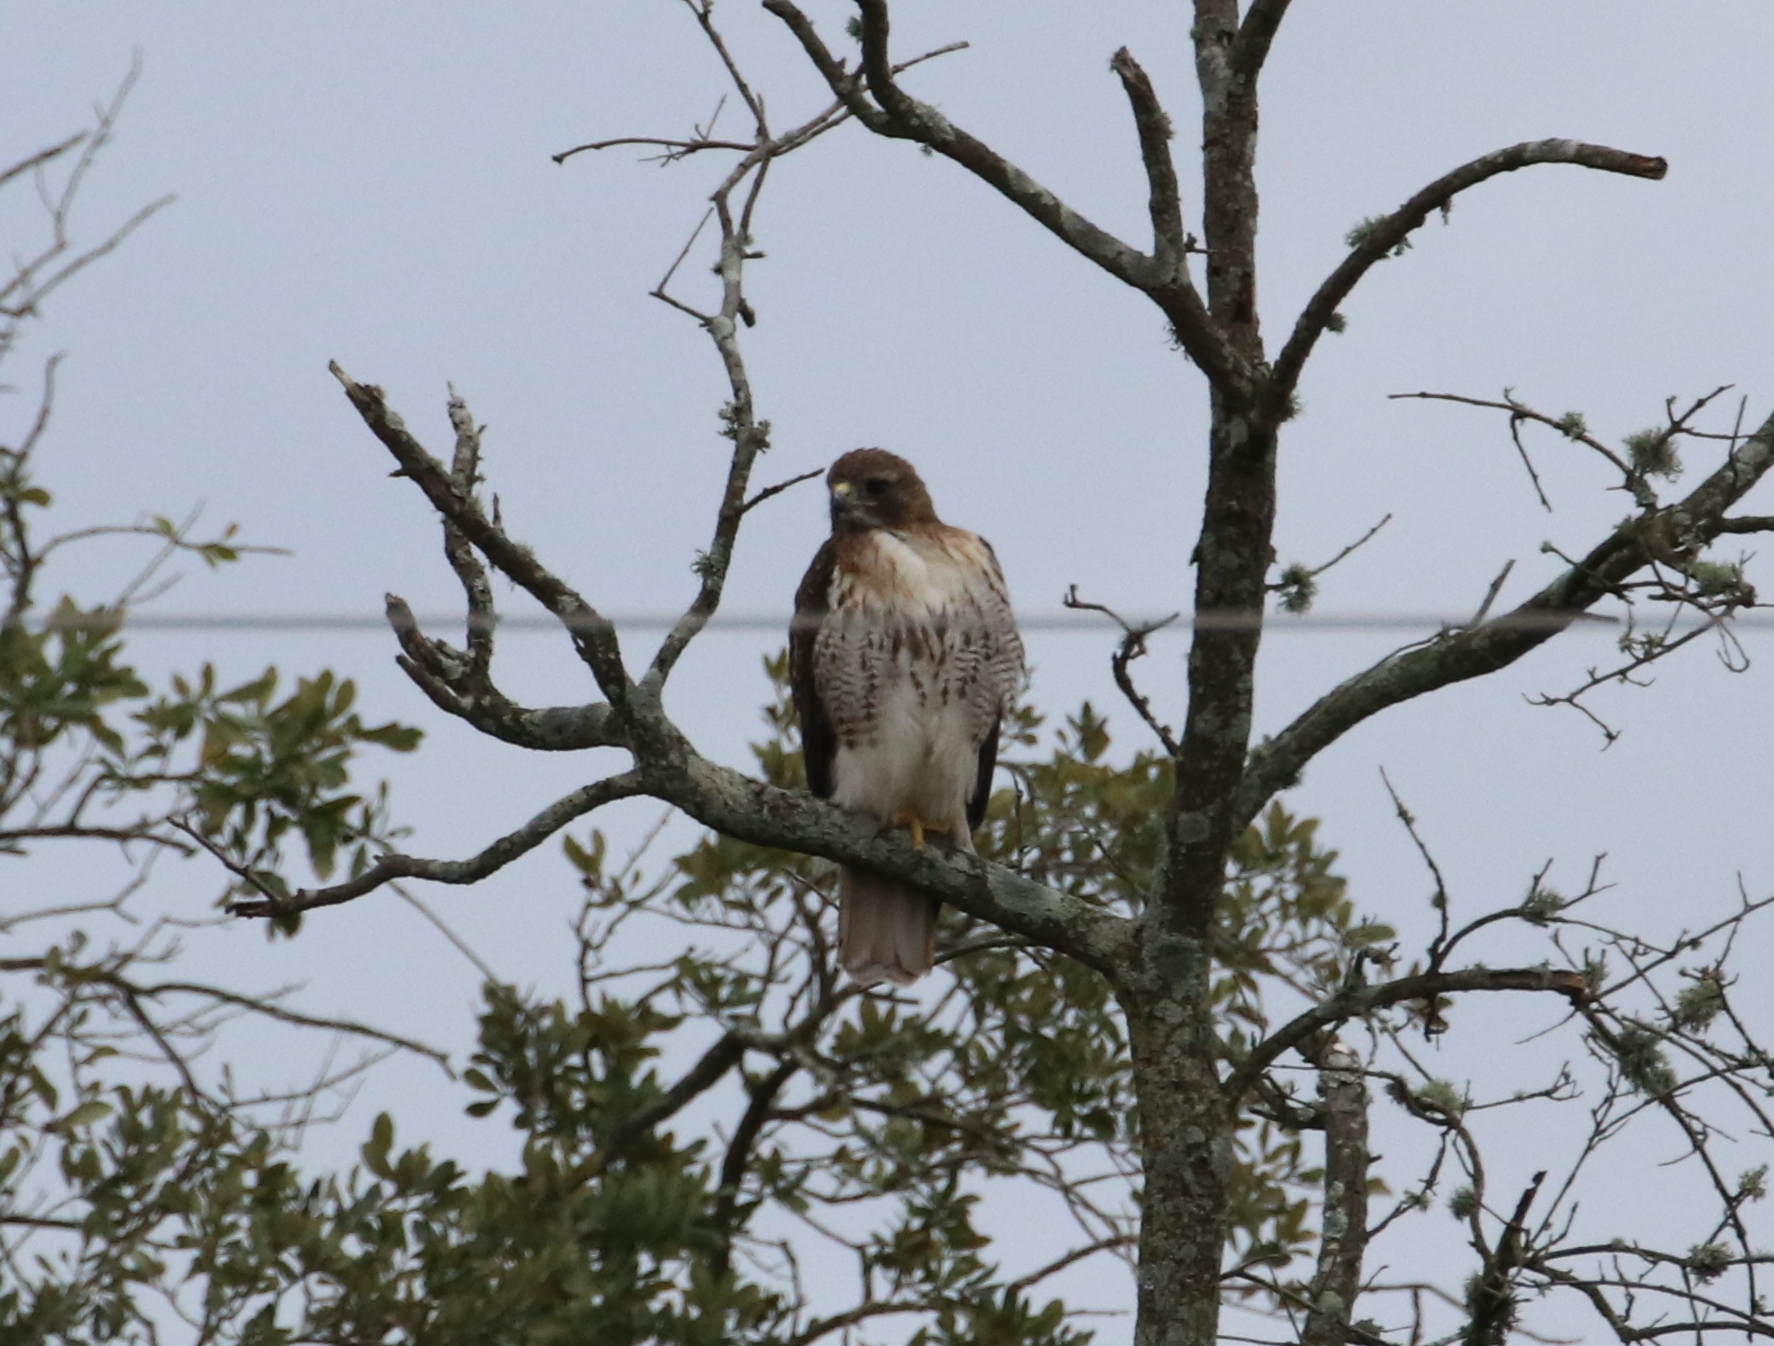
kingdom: Animalia
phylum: Chordata
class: Aves
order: Accipitriformes
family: Accipitridae
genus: Buteo
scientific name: Buteo jamaicensis
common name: Red-tailed hawk
